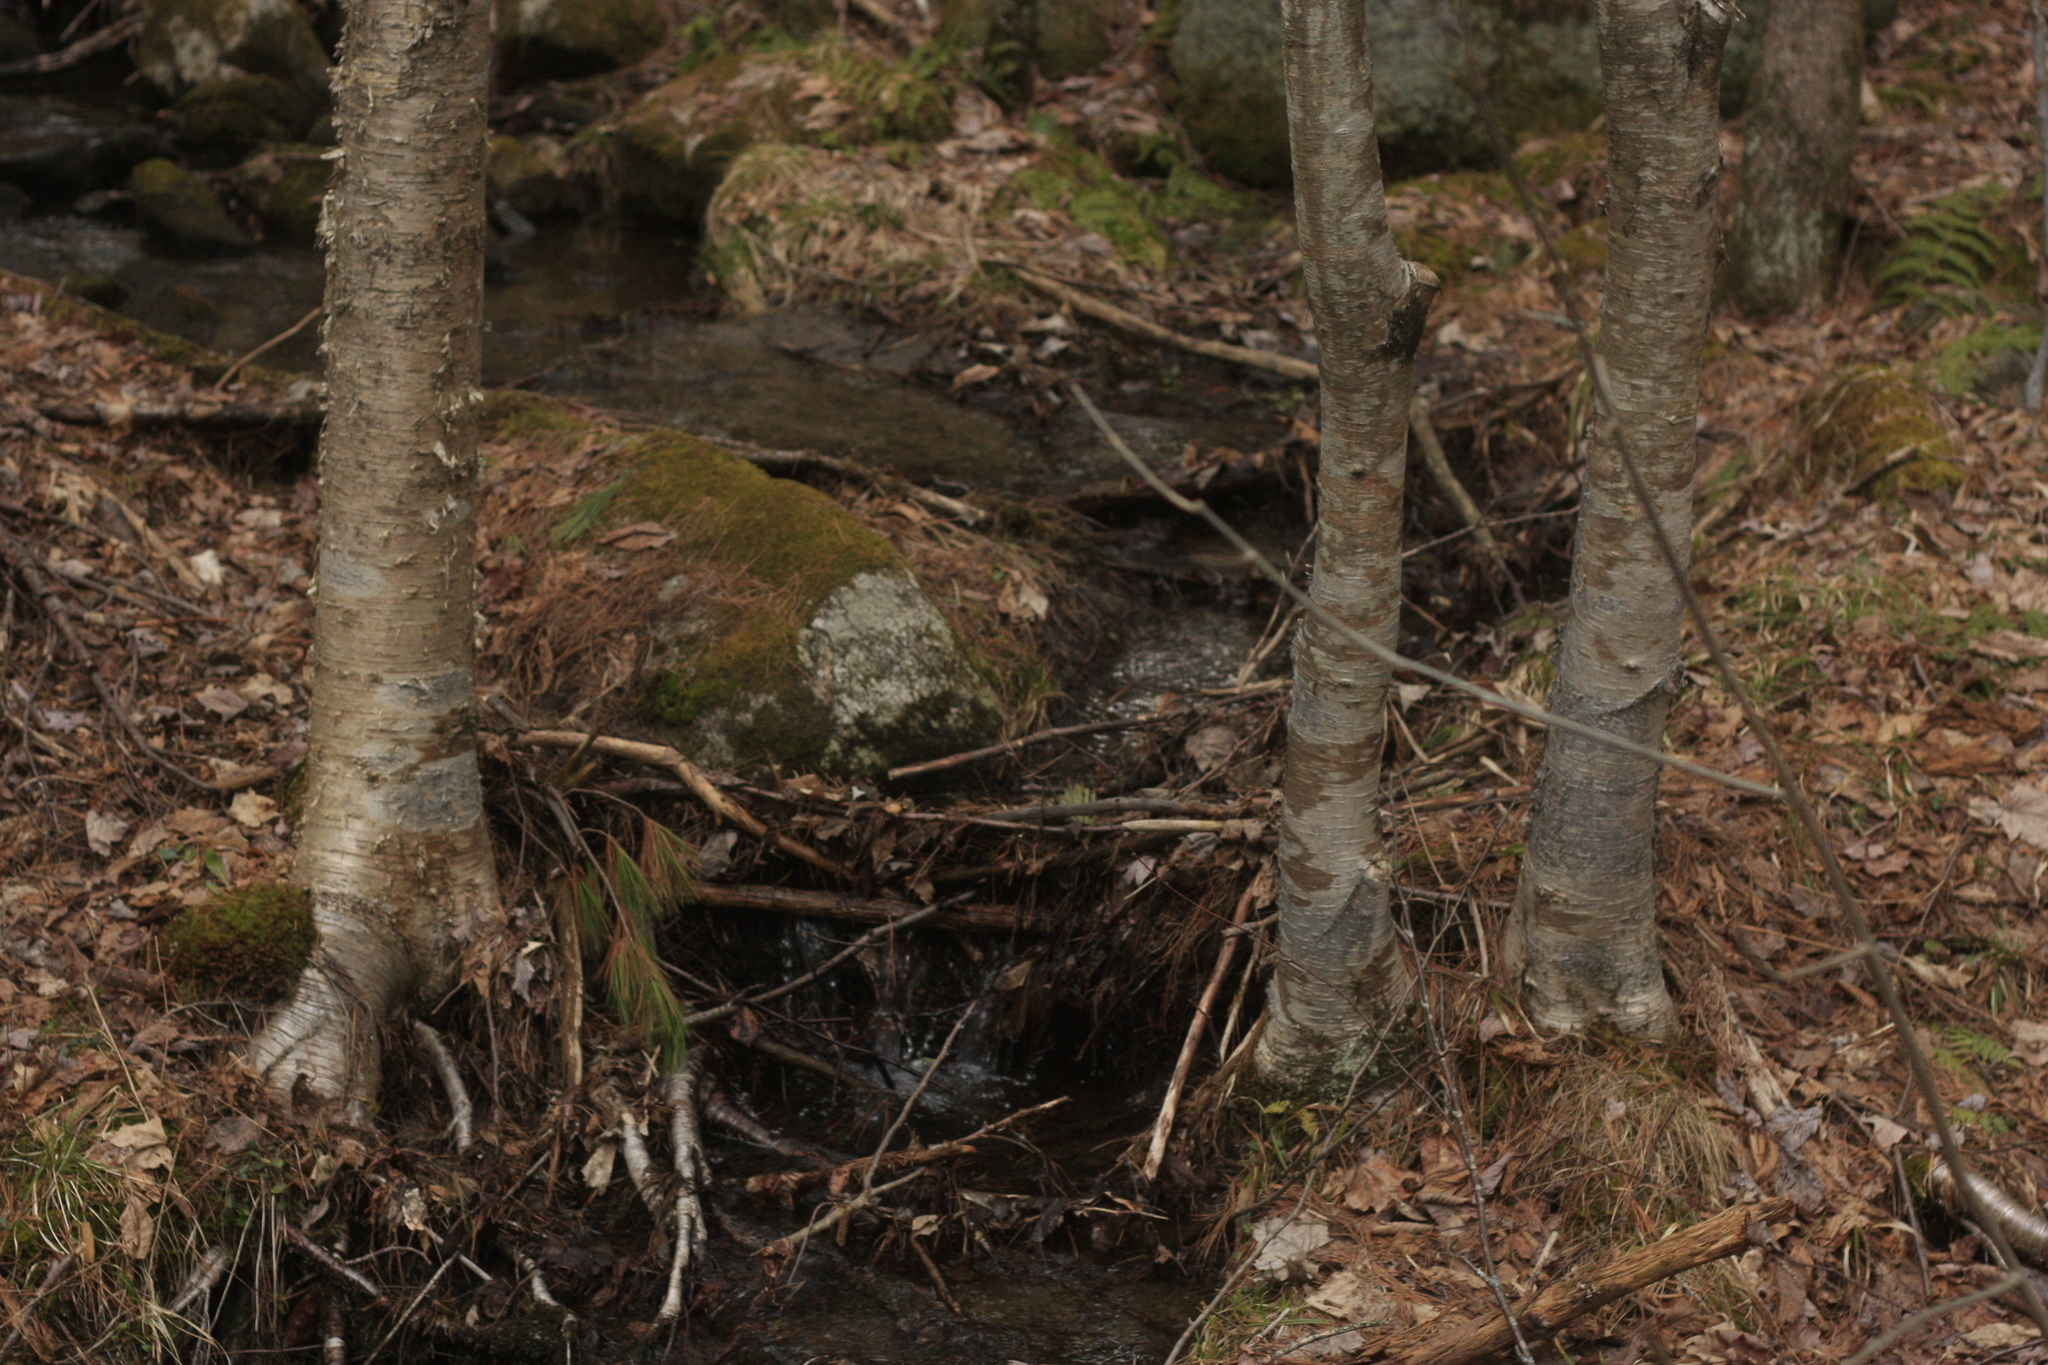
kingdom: Plantae
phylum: Tracheophyta
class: Magnoliopsida
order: Fagales
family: Betulaceae
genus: Betula
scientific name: Betula alleghaniensis
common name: Yellow birch
